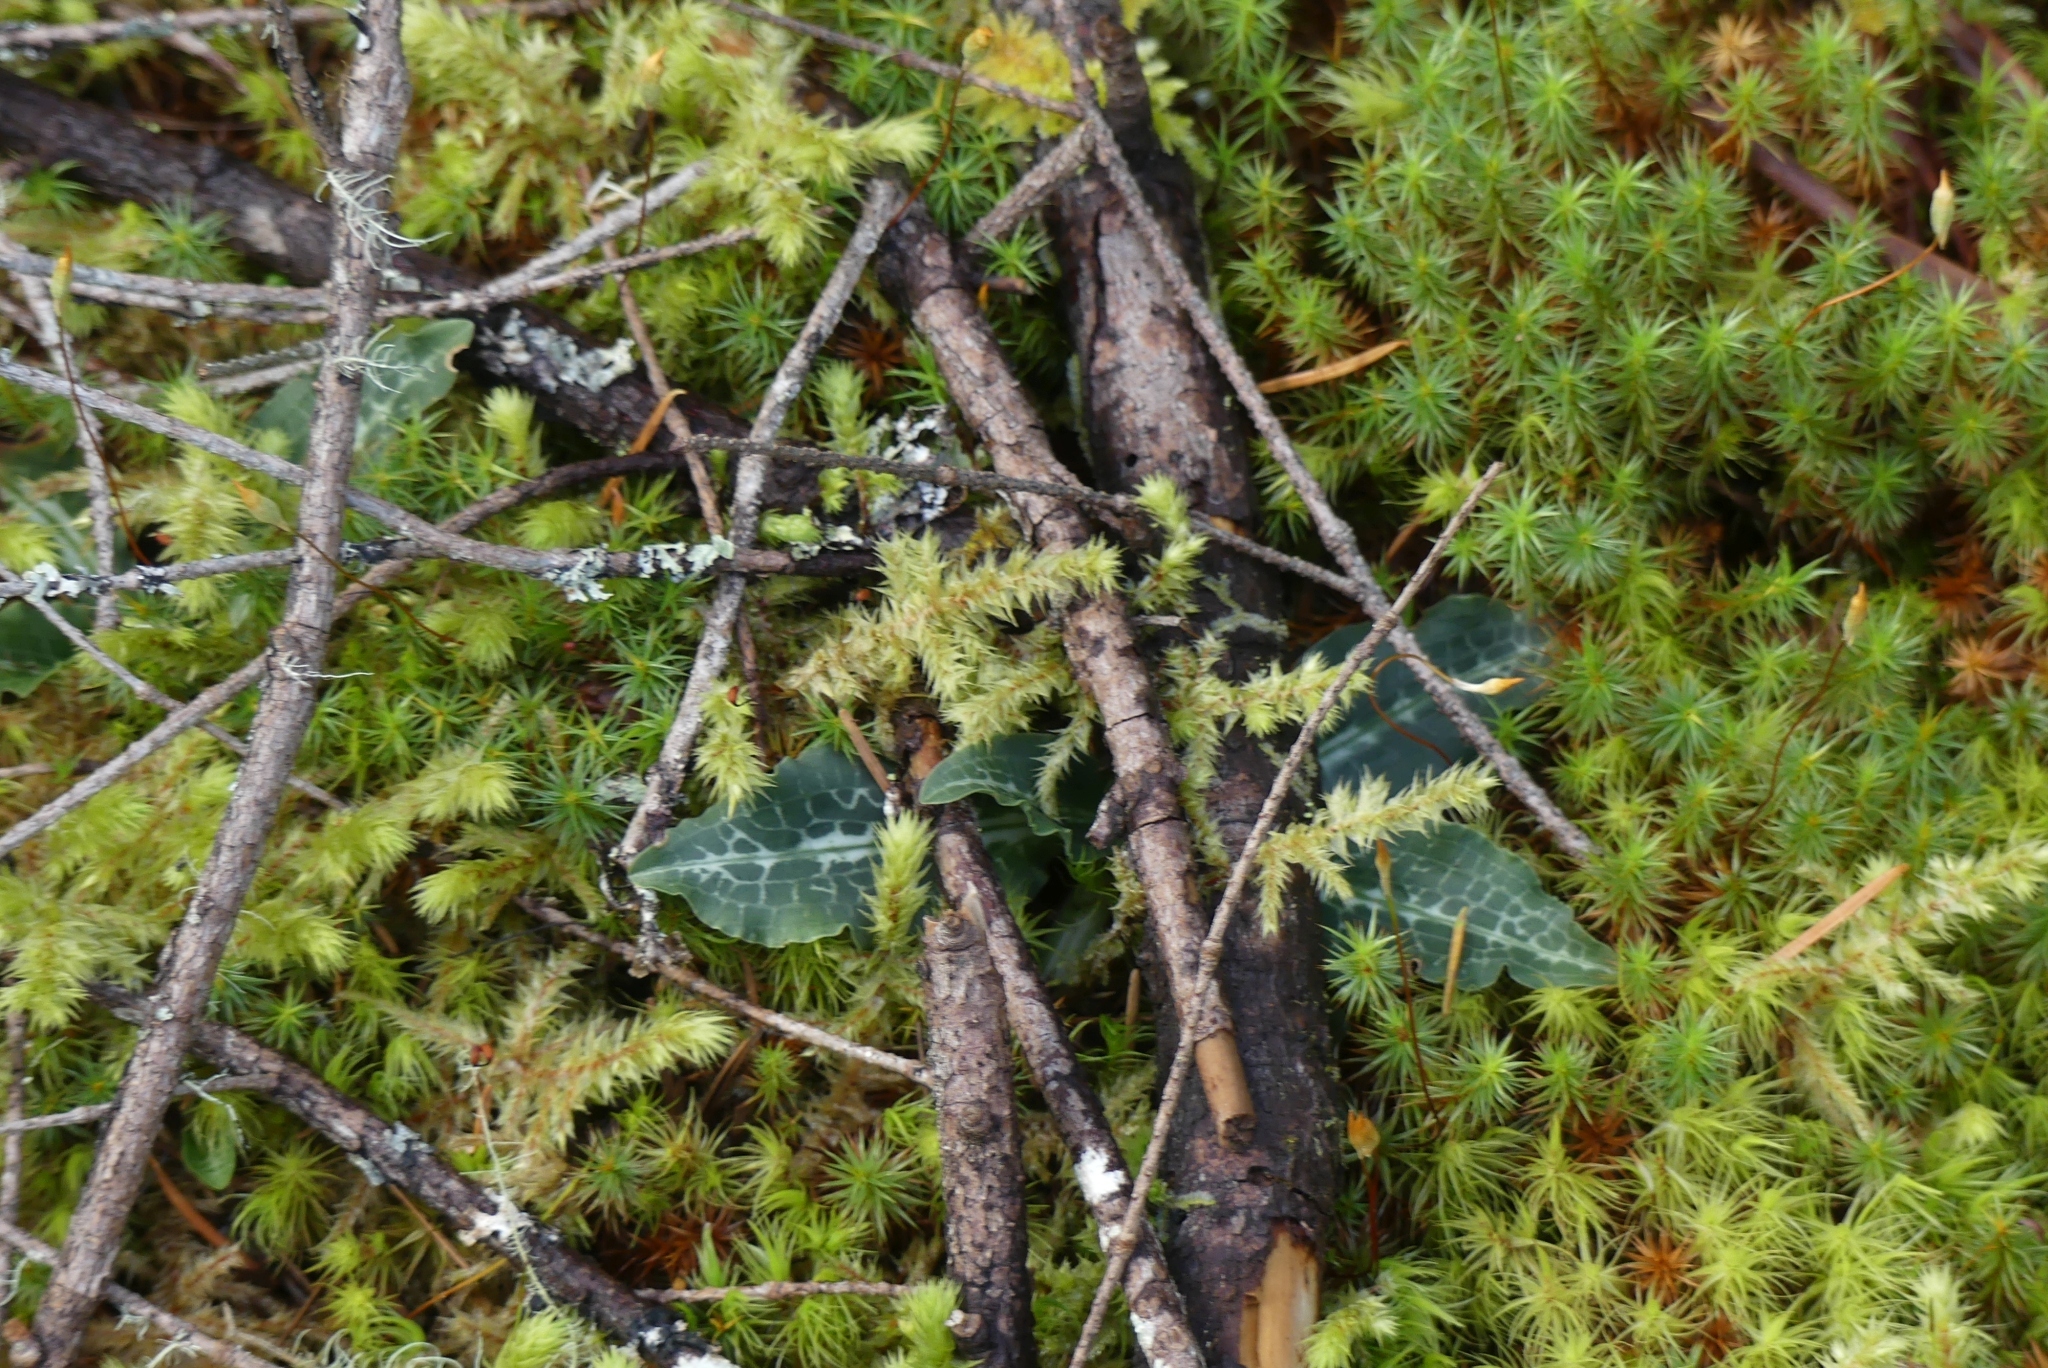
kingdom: Plantae
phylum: Tracheophyta
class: Liliopsida
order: Asparagales
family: Orchidaceae
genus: Goodyera
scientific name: Goodyera oblongifolia
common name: Giant rattlesnake-plantain
